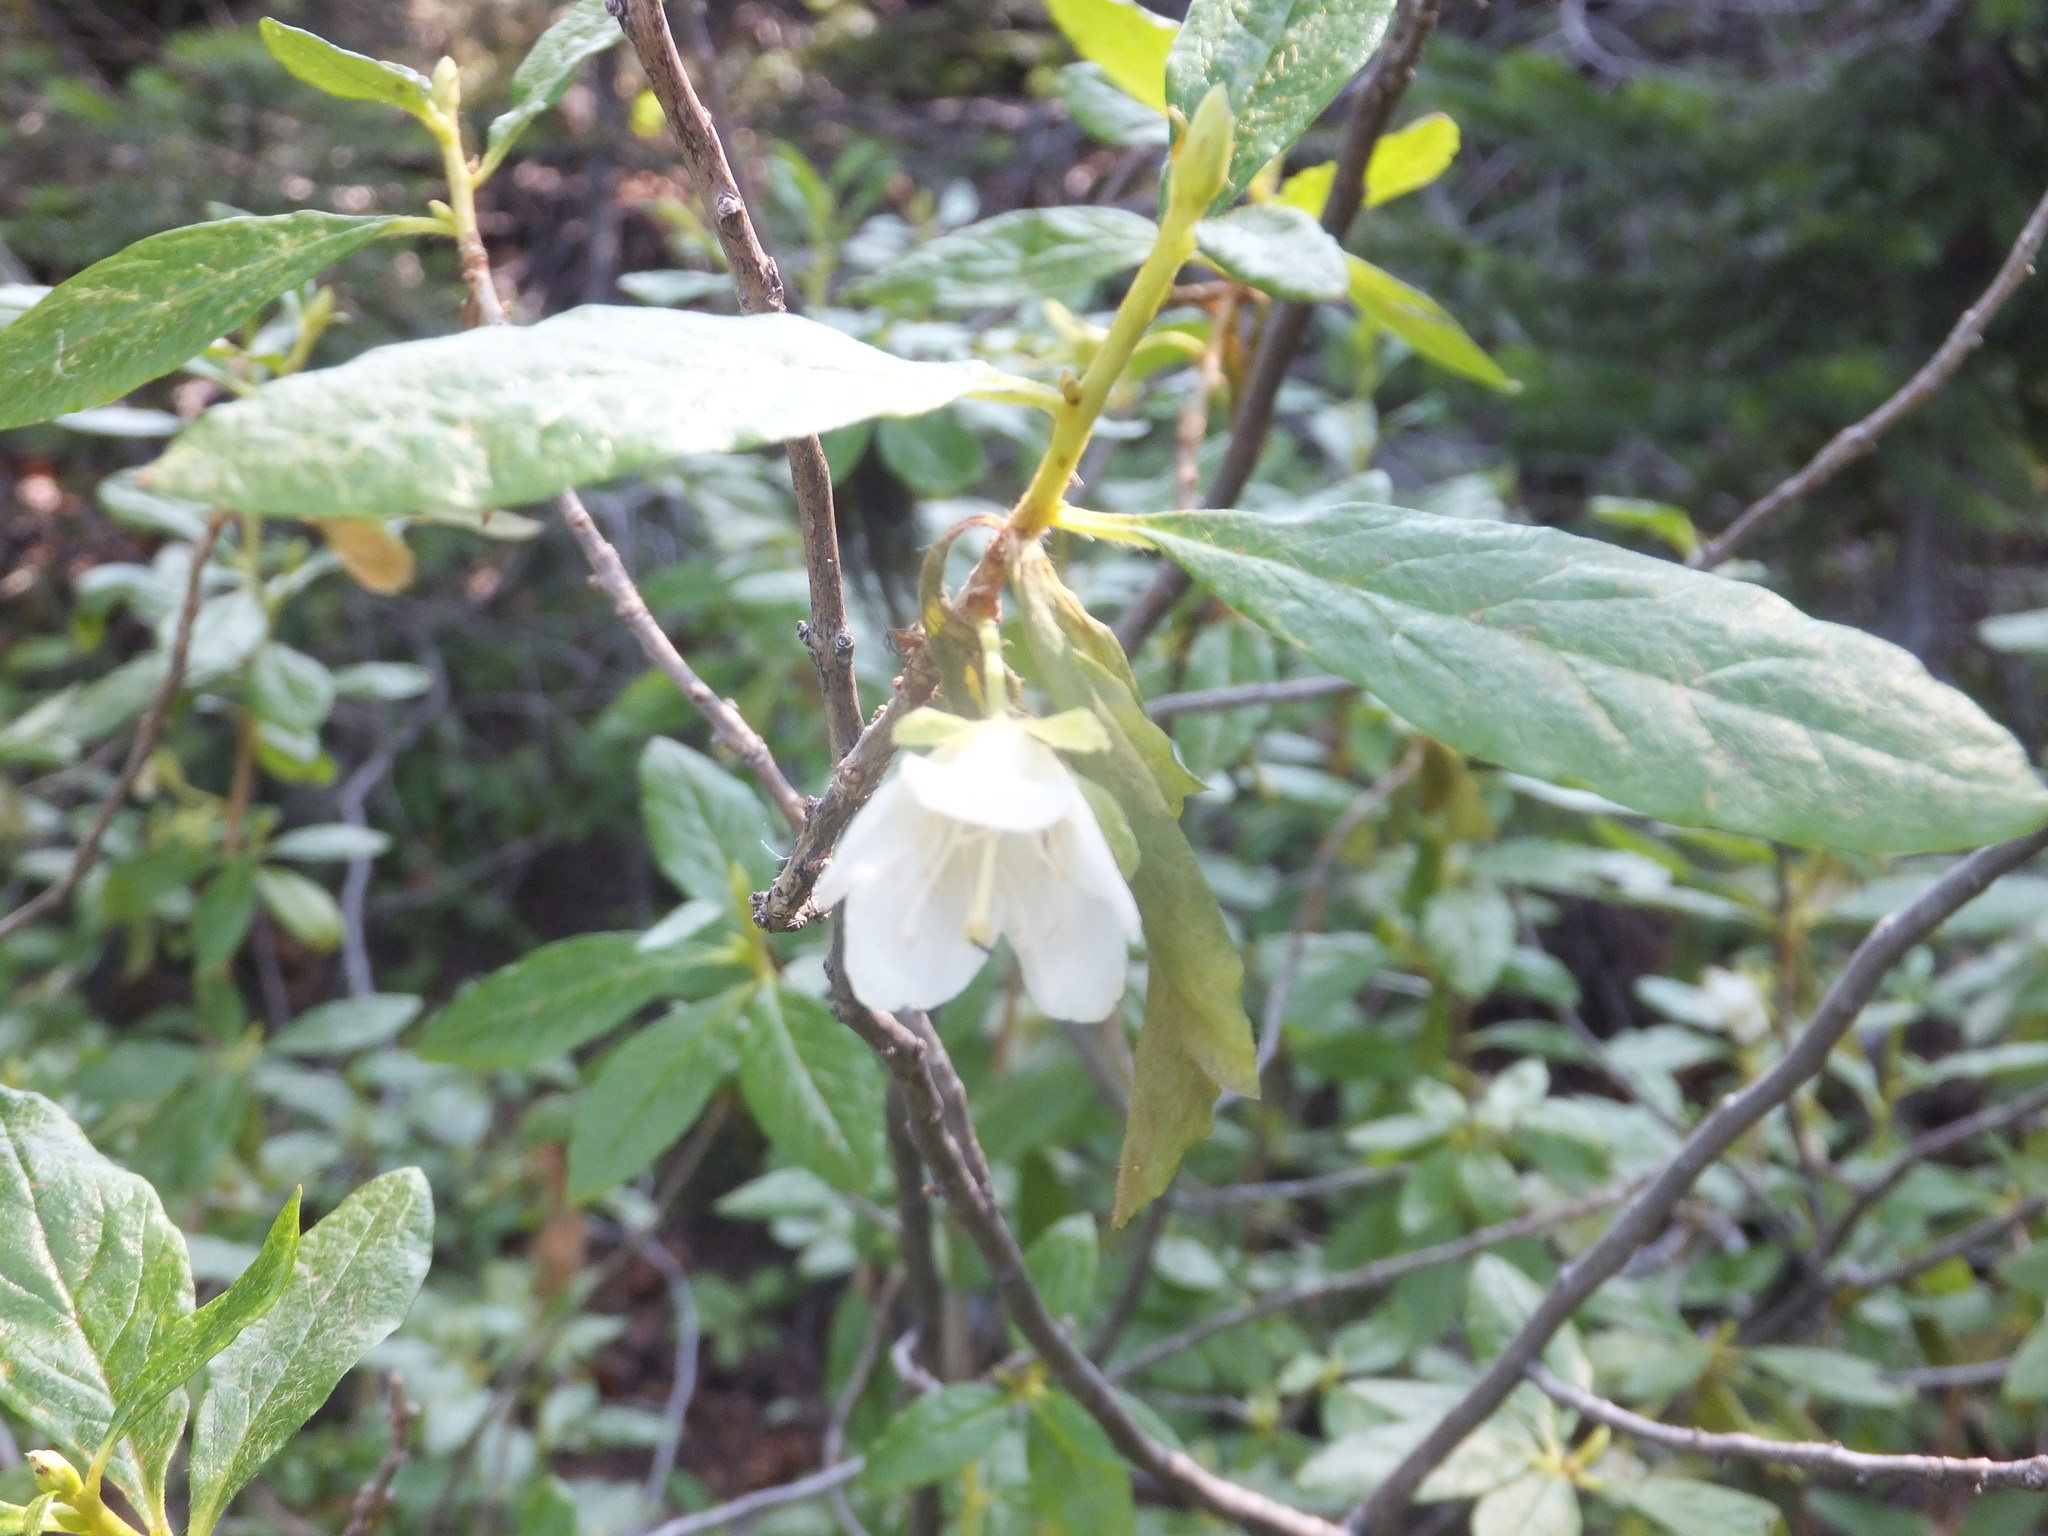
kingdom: Plantae
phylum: Tracheophyta
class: Magnoliopsida
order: Ericales
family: Ericaceae
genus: Rhododendron
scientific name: Rhododendron albiflorum
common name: White rhododendron
